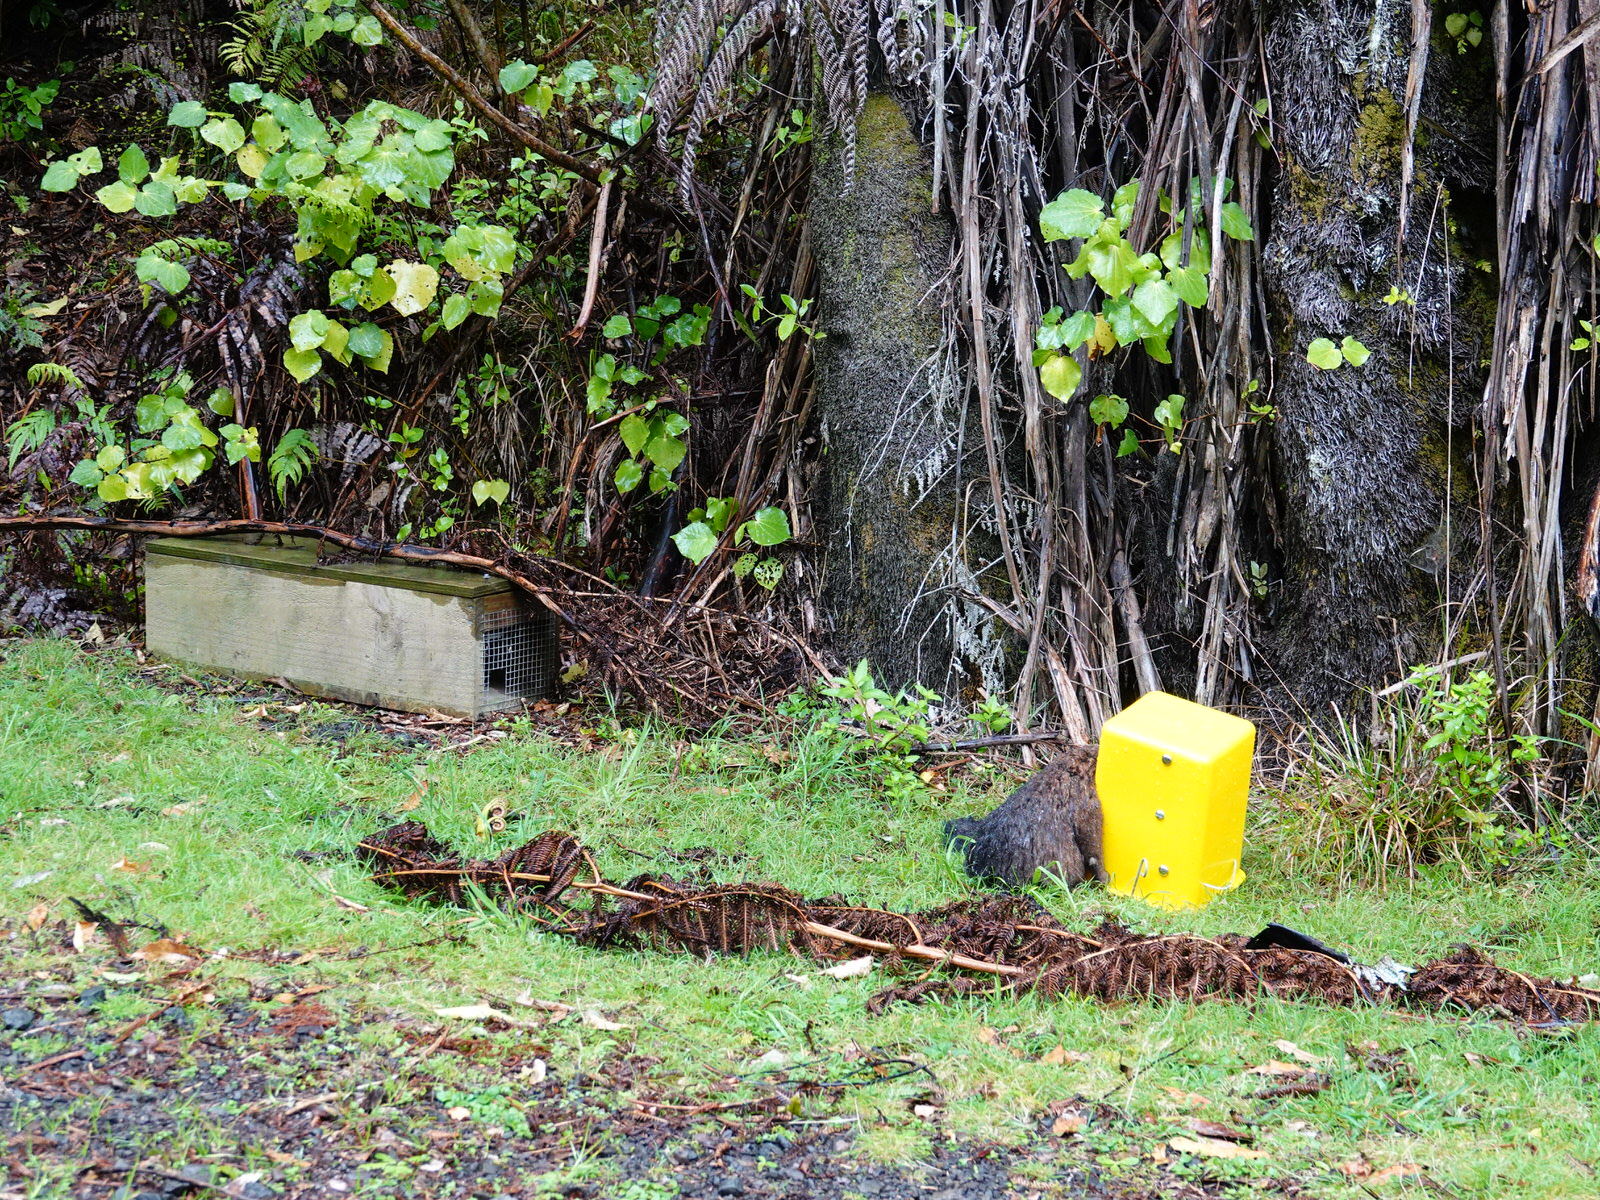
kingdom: Animalia
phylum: Chordata
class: Mammalia
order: Diprotodontia
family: Phalangeridae
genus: Trichosurus
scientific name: Trichosurus vulpecula
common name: Common brushtail
